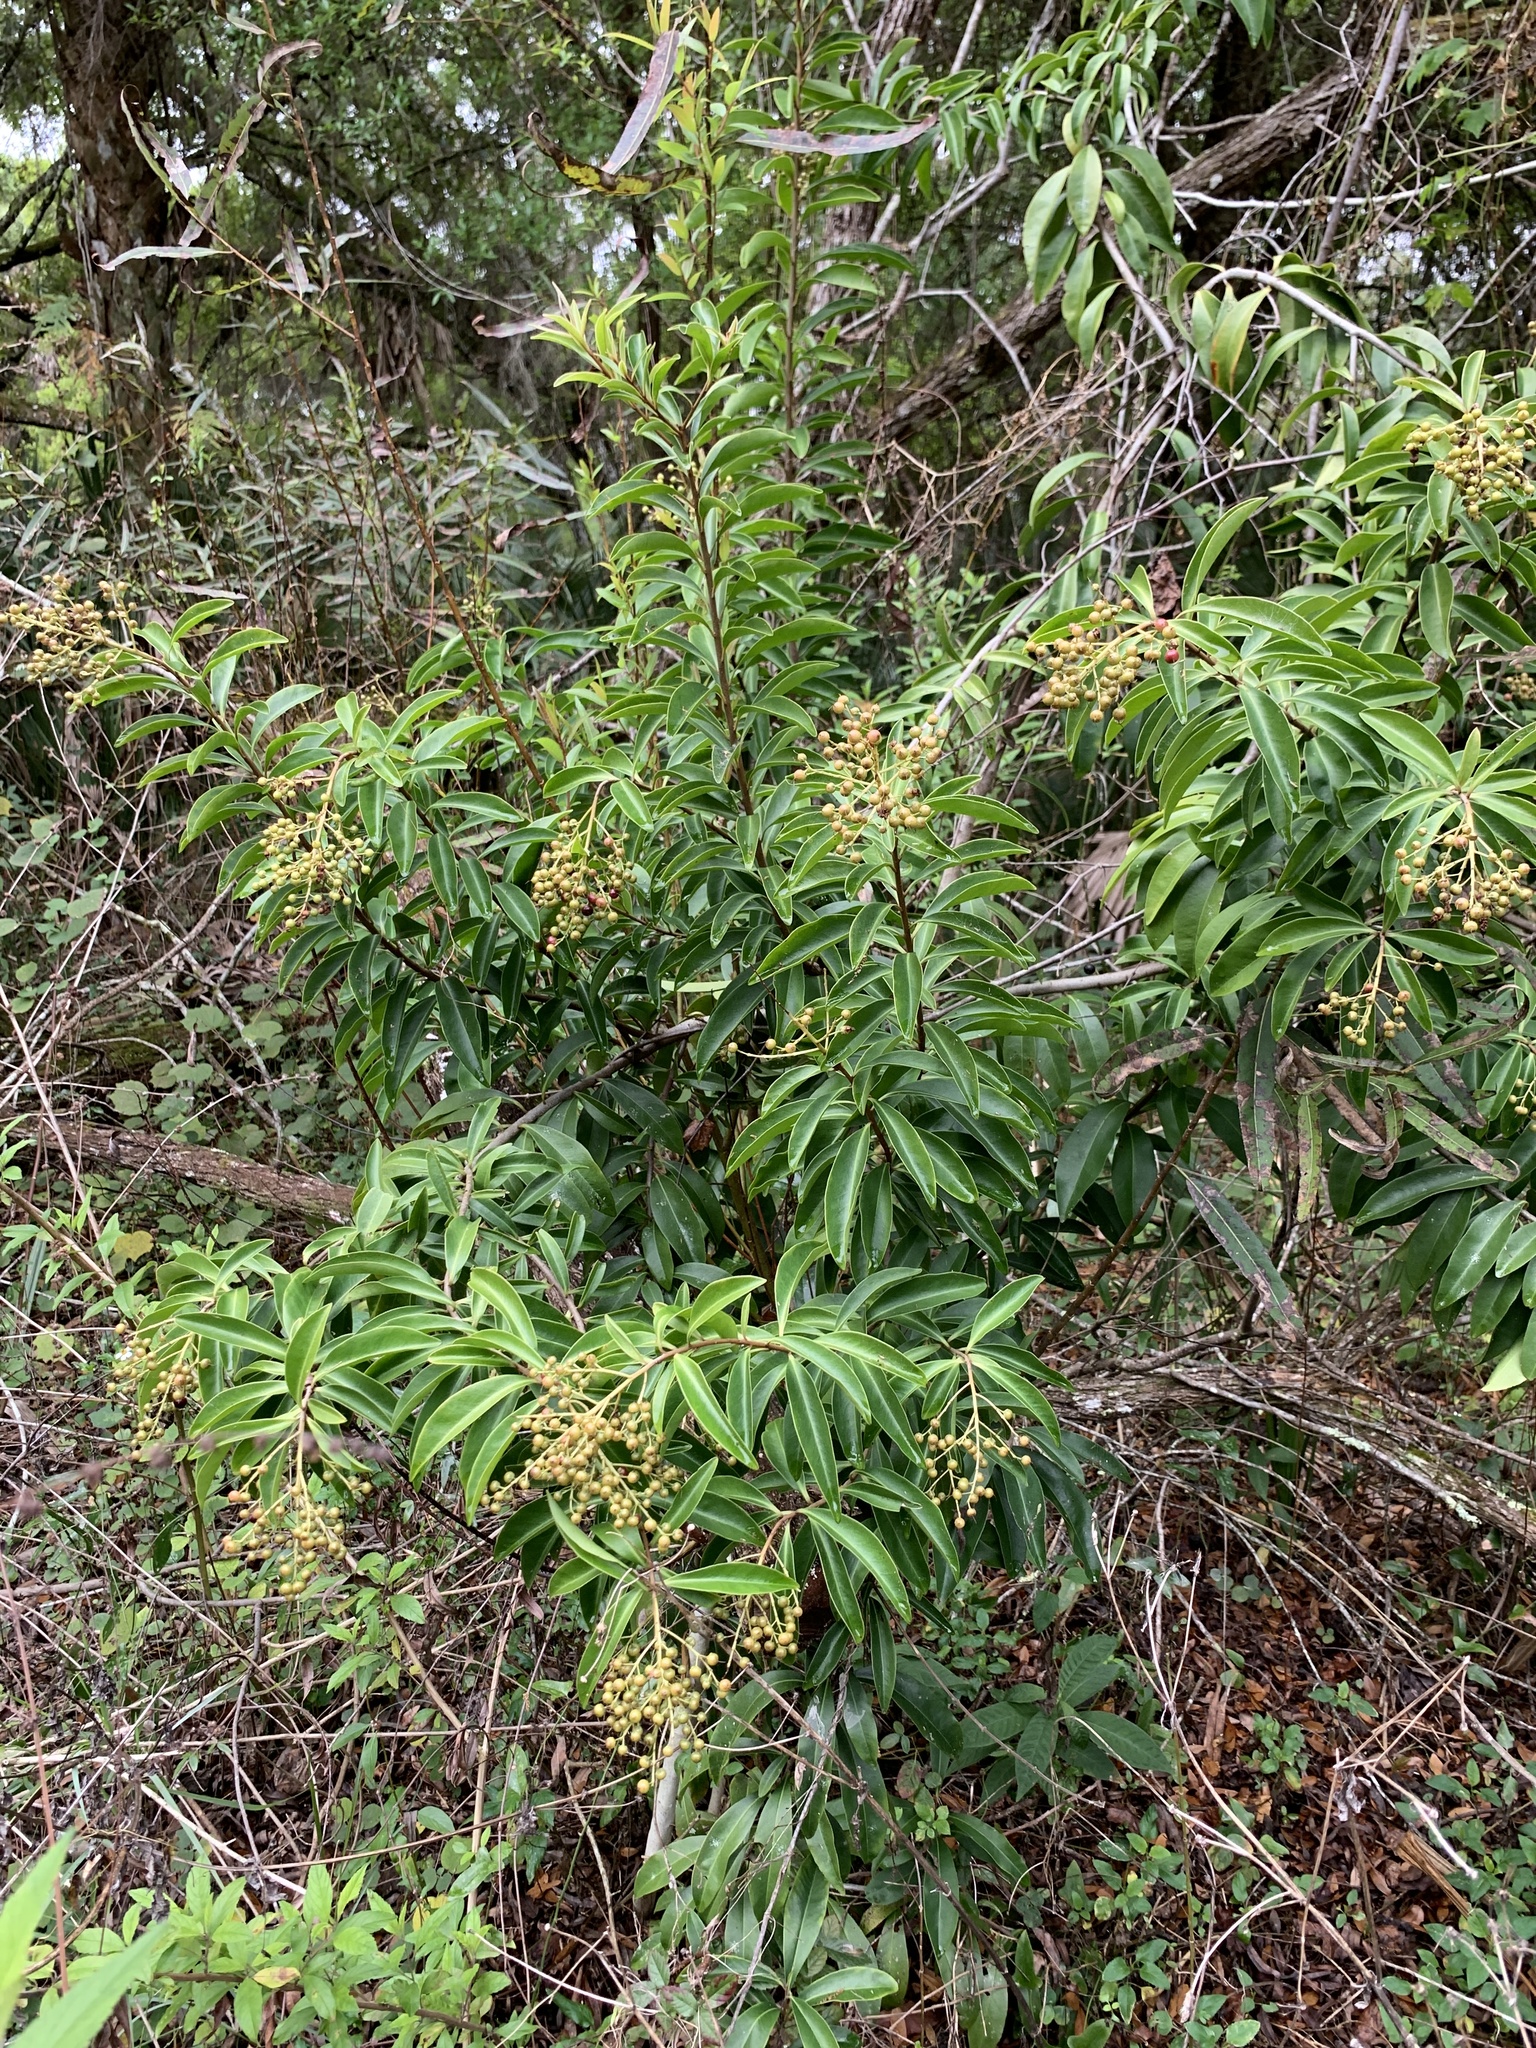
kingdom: Plantae
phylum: Tracheophyta
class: Magnoliopsida
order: Ericales
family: Primulaceae
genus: Ardisia
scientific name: Ardisia escallonioides
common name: Island marlberry
